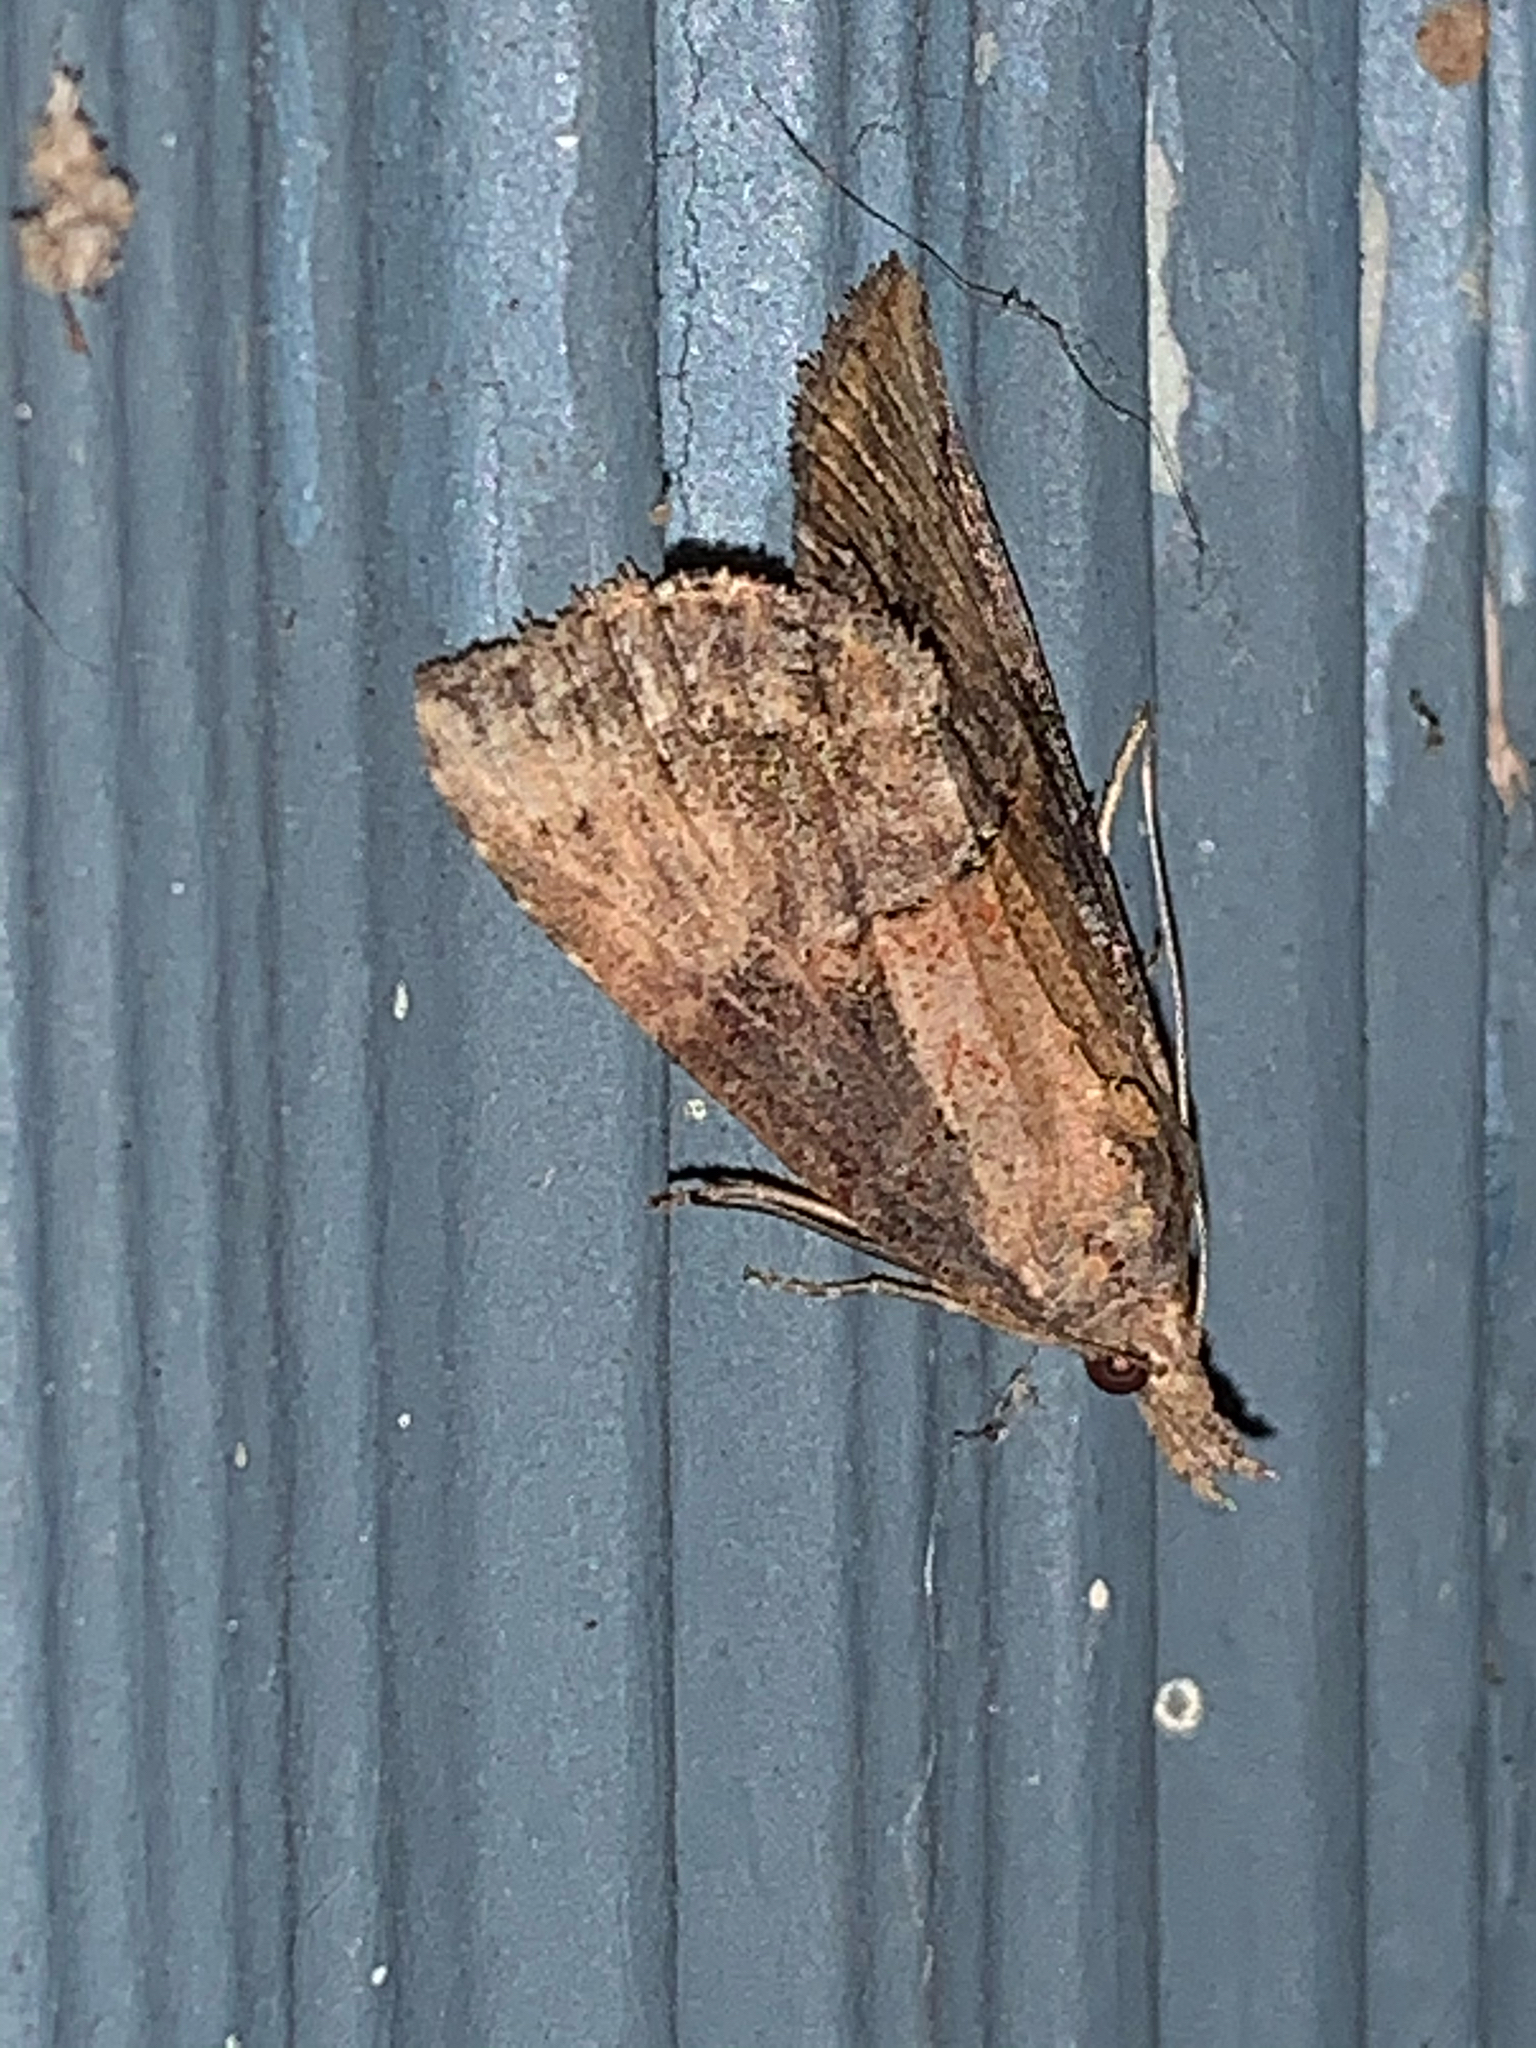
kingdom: Animalia
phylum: Arthropoda
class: Insecta
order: Lepidoptera
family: Erebidae
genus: Hypena
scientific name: Hypena scabra
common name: Green cloverworm
